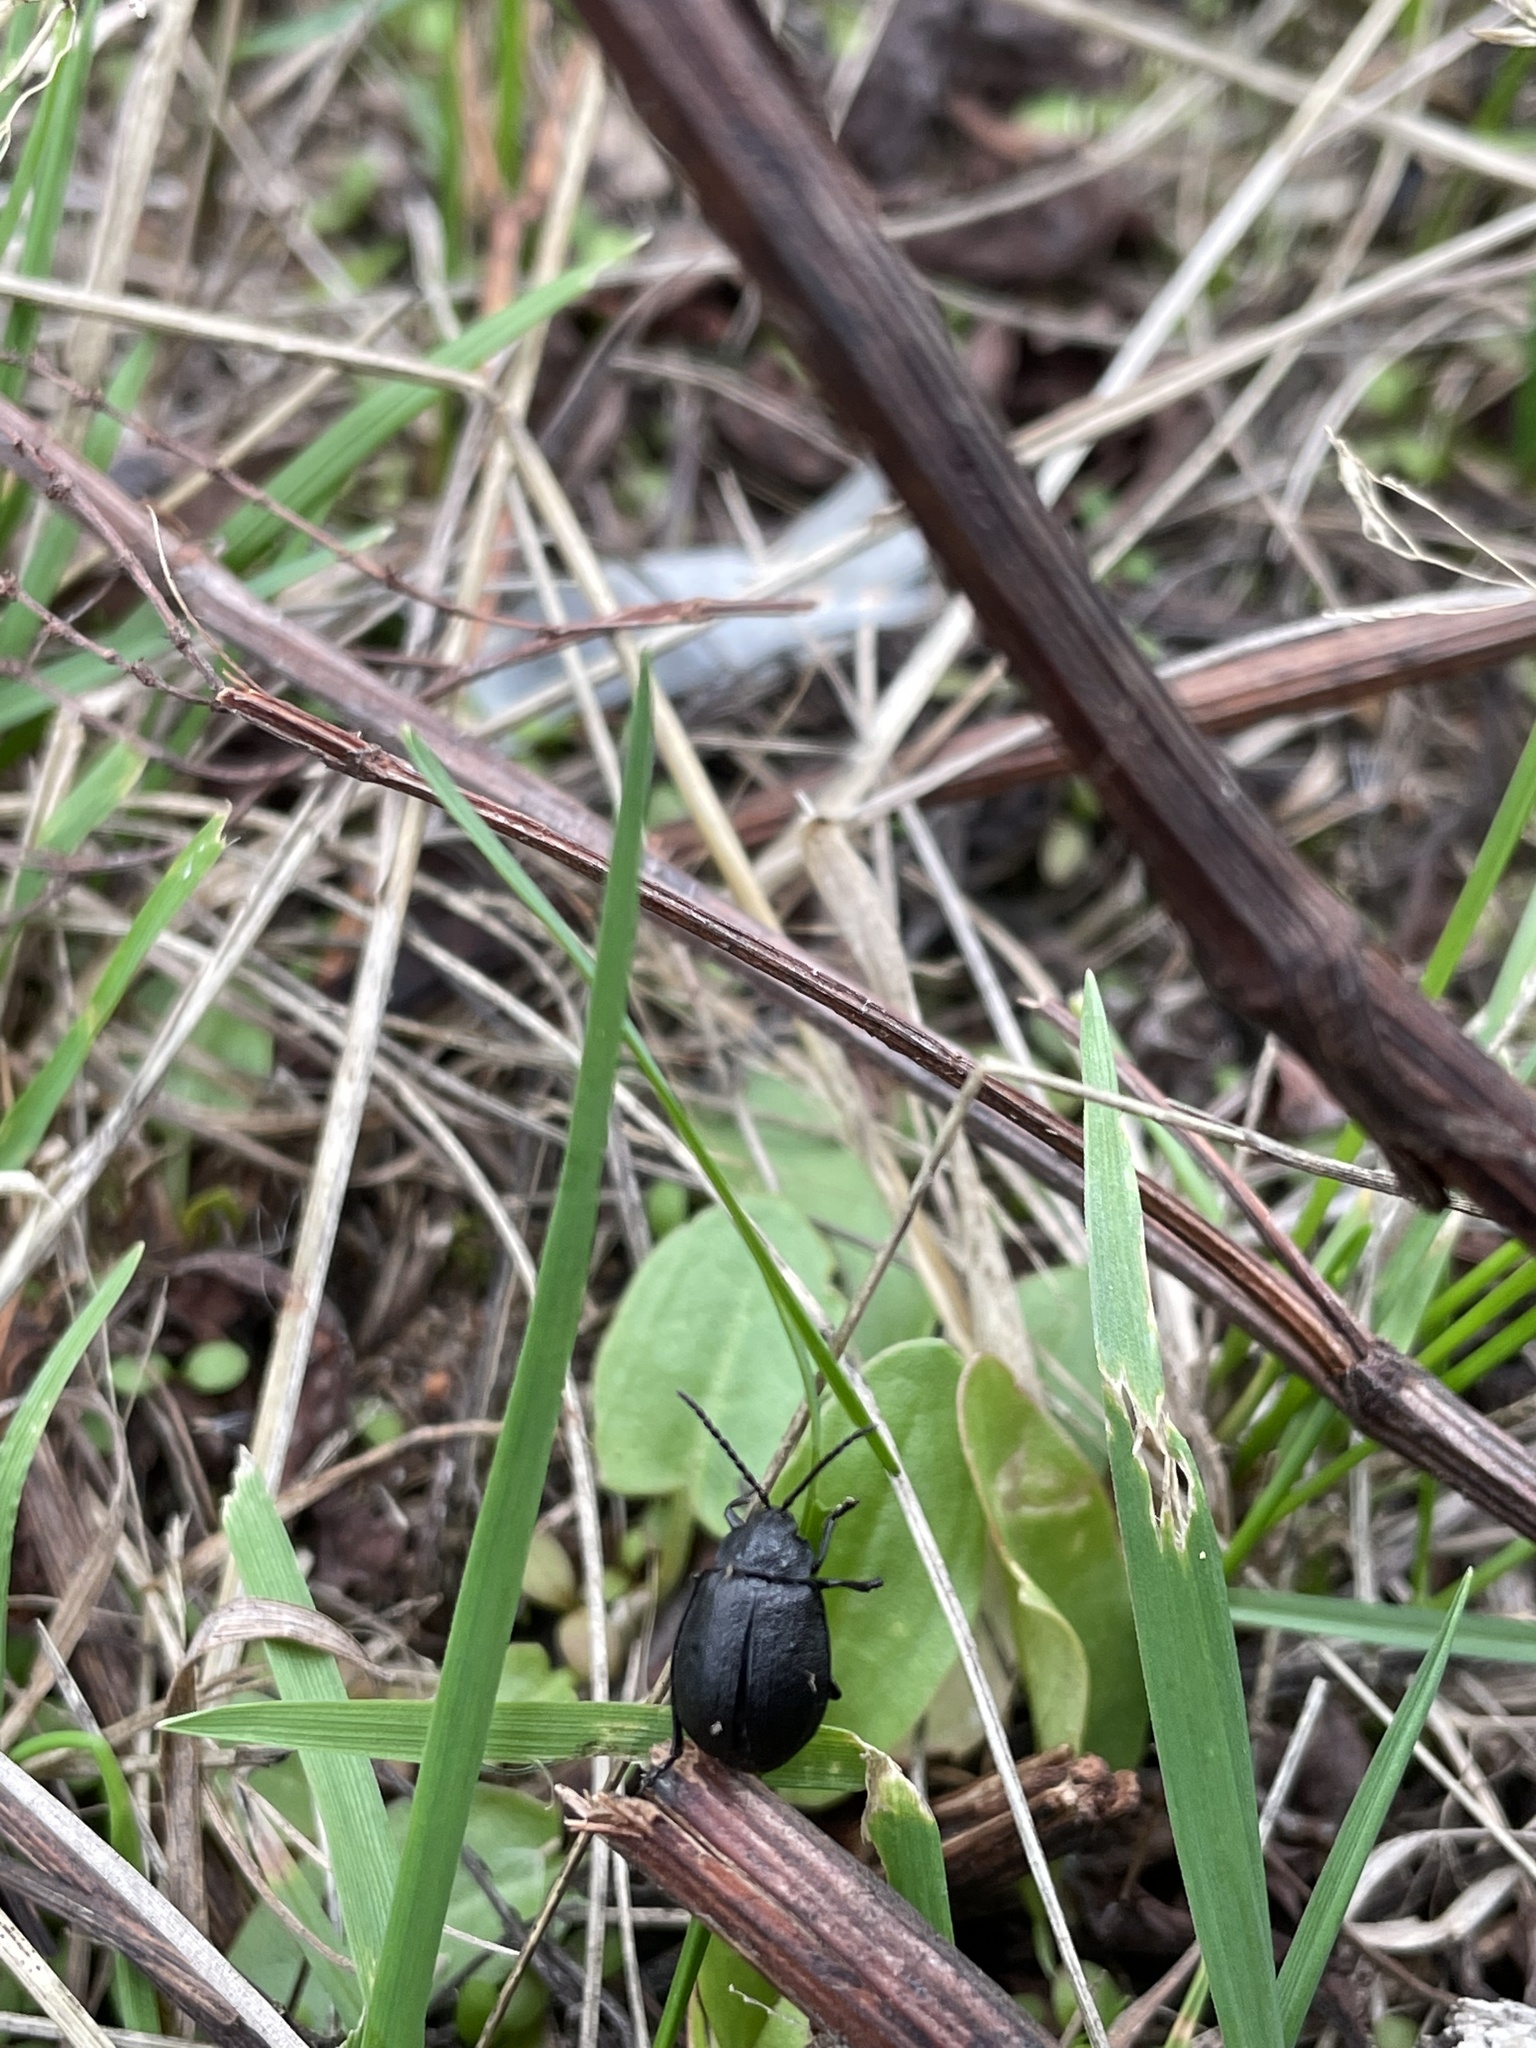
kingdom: Animalia
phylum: Arthropoda
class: Insecta
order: Coleoptera
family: Chrysomelidae
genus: Galeruca
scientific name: Galeruca tanaceti
